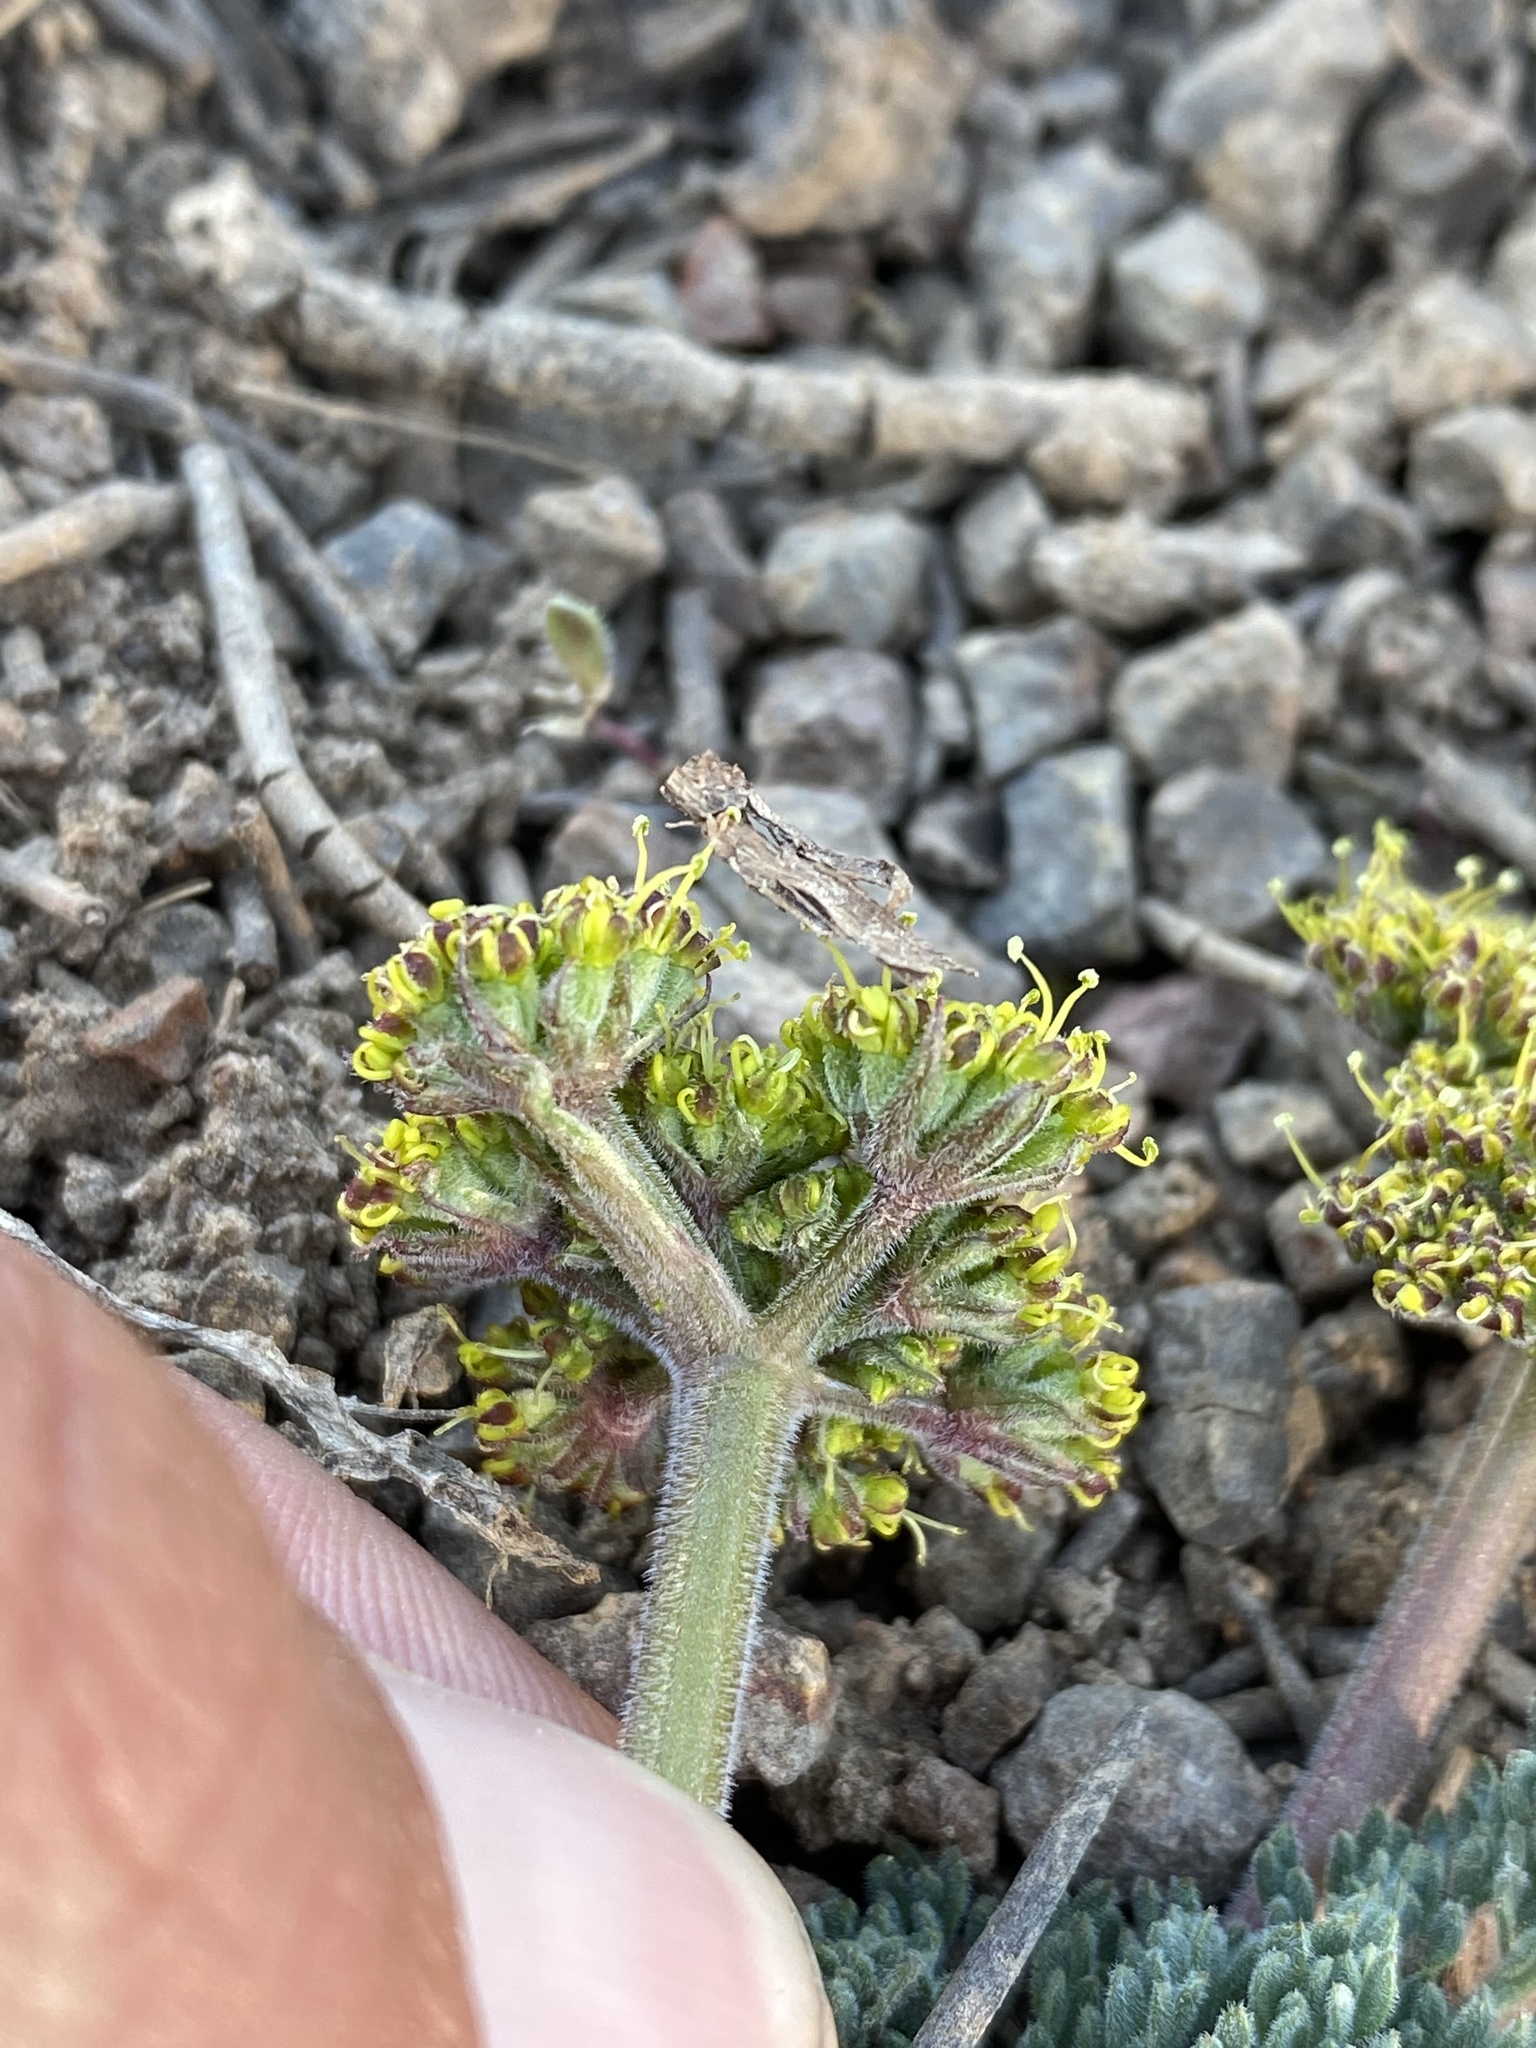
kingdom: Plantae
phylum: Tracheophyta
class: Magnoliopsida
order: Apiales
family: Apiaceae
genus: Lomatium
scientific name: Lomatium foeniculaceum
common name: Desert-parsley
